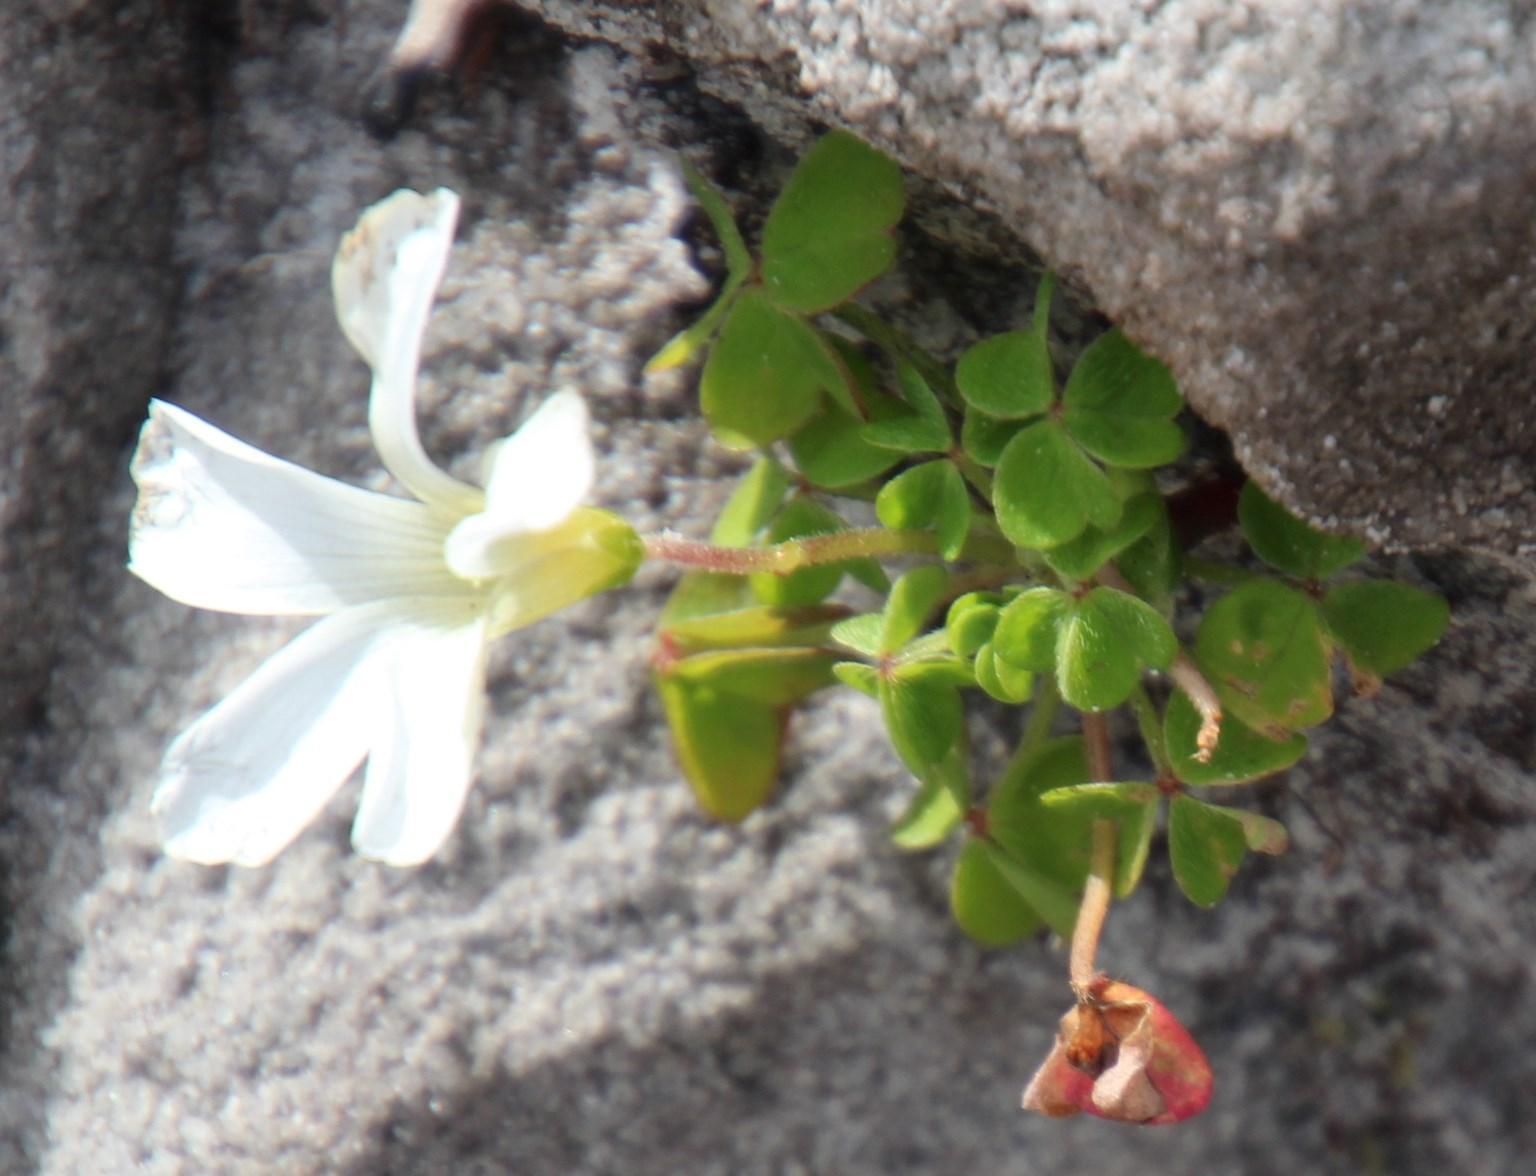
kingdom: Plantae
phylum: Tracheophyta
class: Magnoliopsida
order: Oxalidales
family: Oxalidaceae
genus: Oxalis
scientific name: Oxalis lanata
